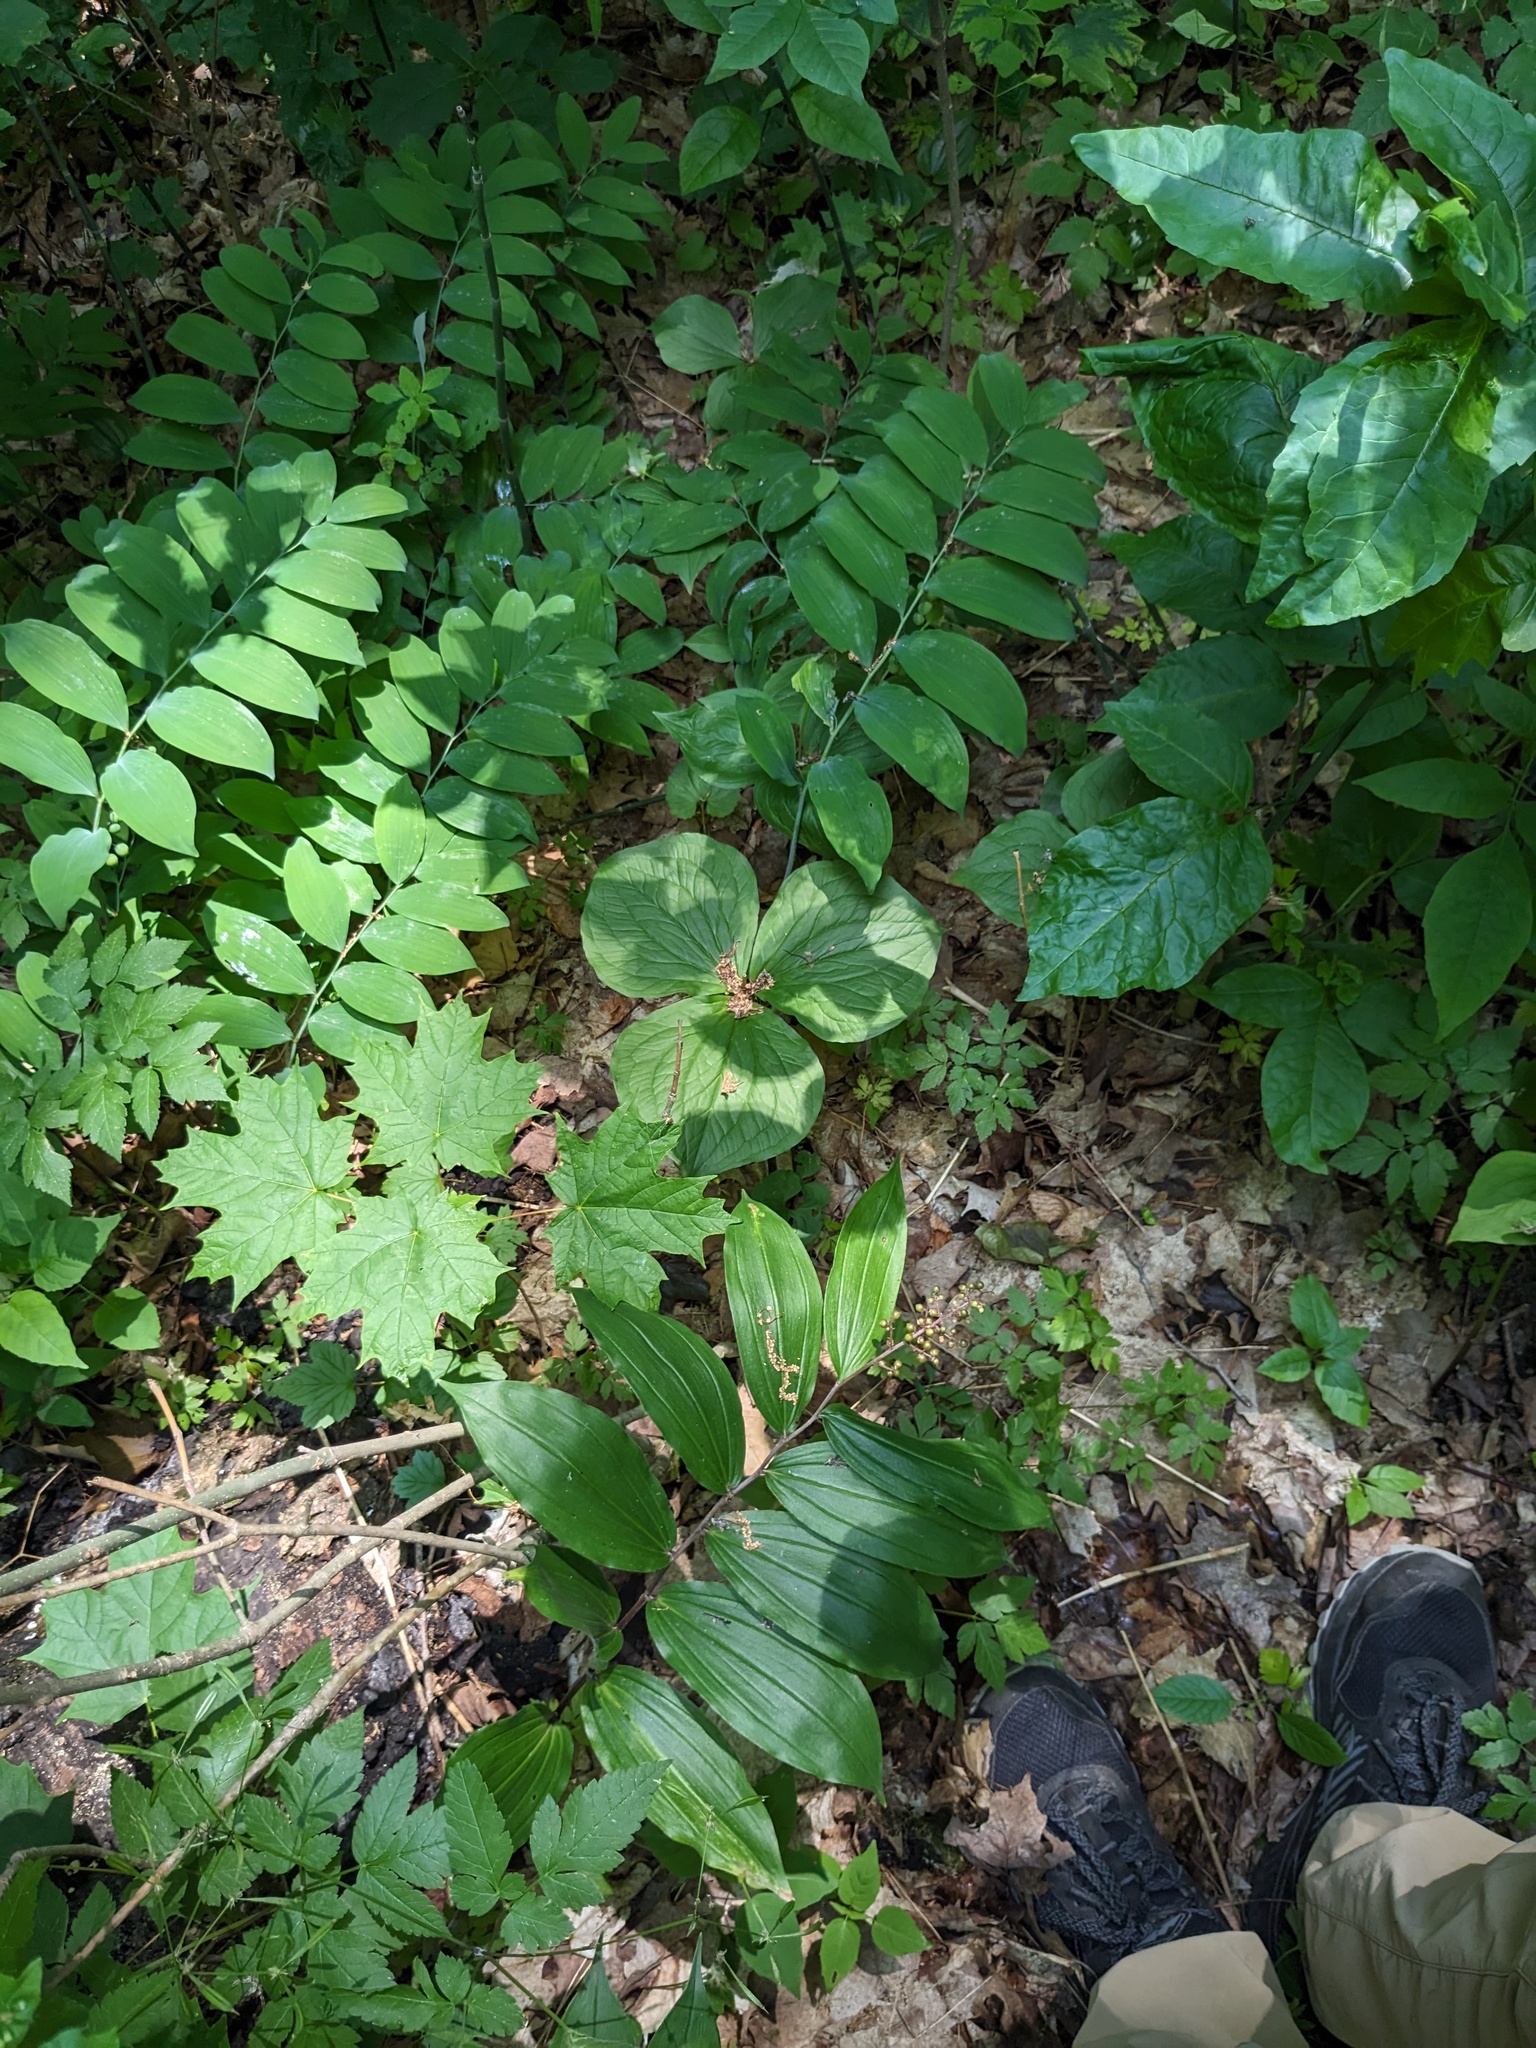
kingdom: Plantae
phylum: Tracheophyta
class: Liliopsida
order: Asparagales
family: Asparagaceae
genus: Polygonatum
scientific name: Polygonatum pubescens
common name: Downy solomon's seal
